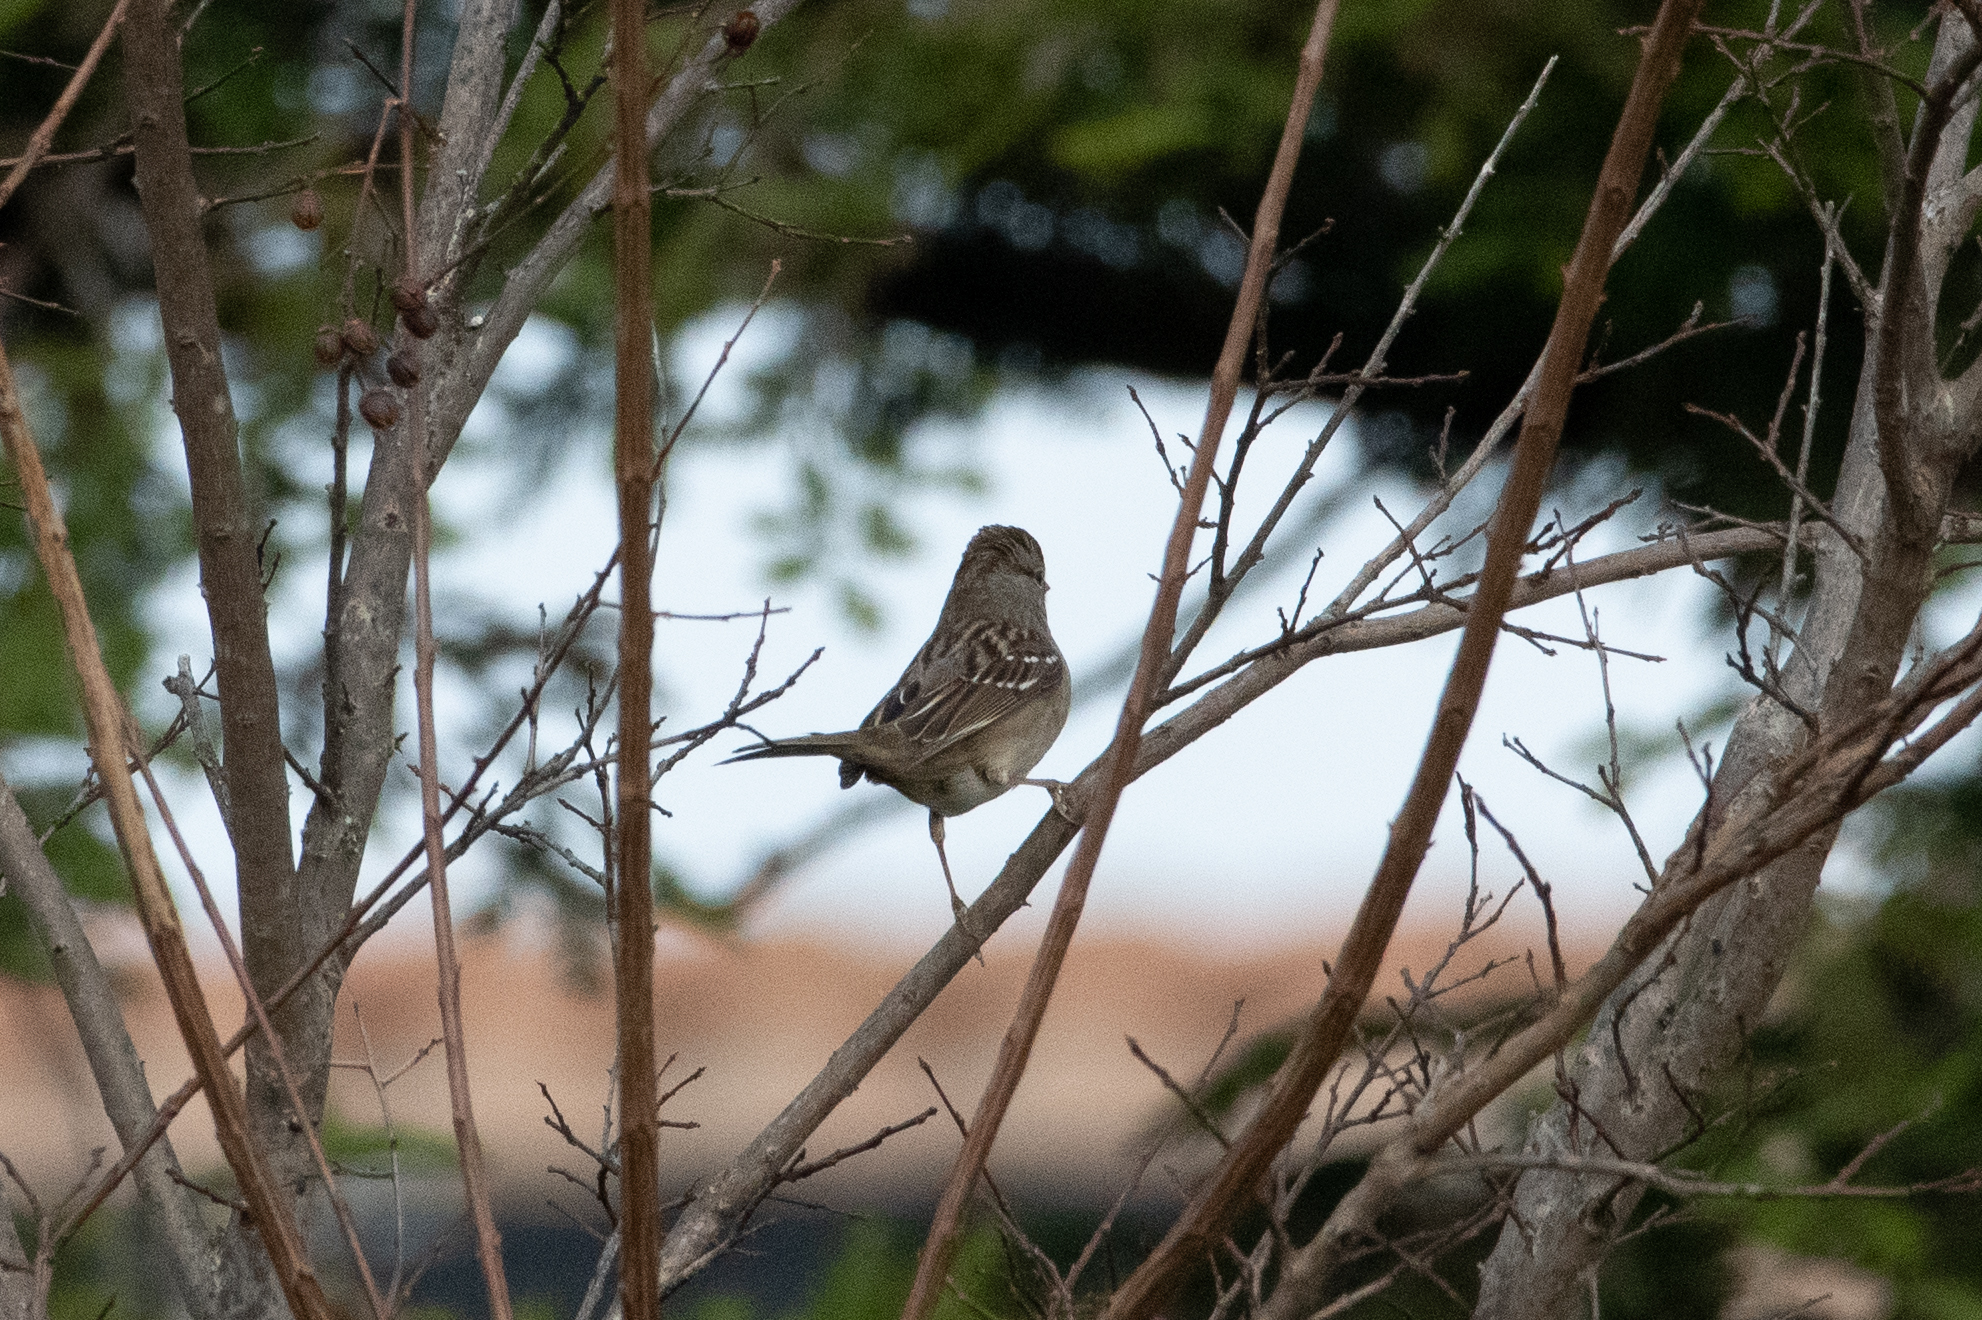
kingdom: Animalia
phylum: Chordata
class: Aves
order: Passeriformes
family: Passerellidae
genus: Zonotrichia
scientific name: Zonotrichia leucophrys
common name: White-crowned sparrow
